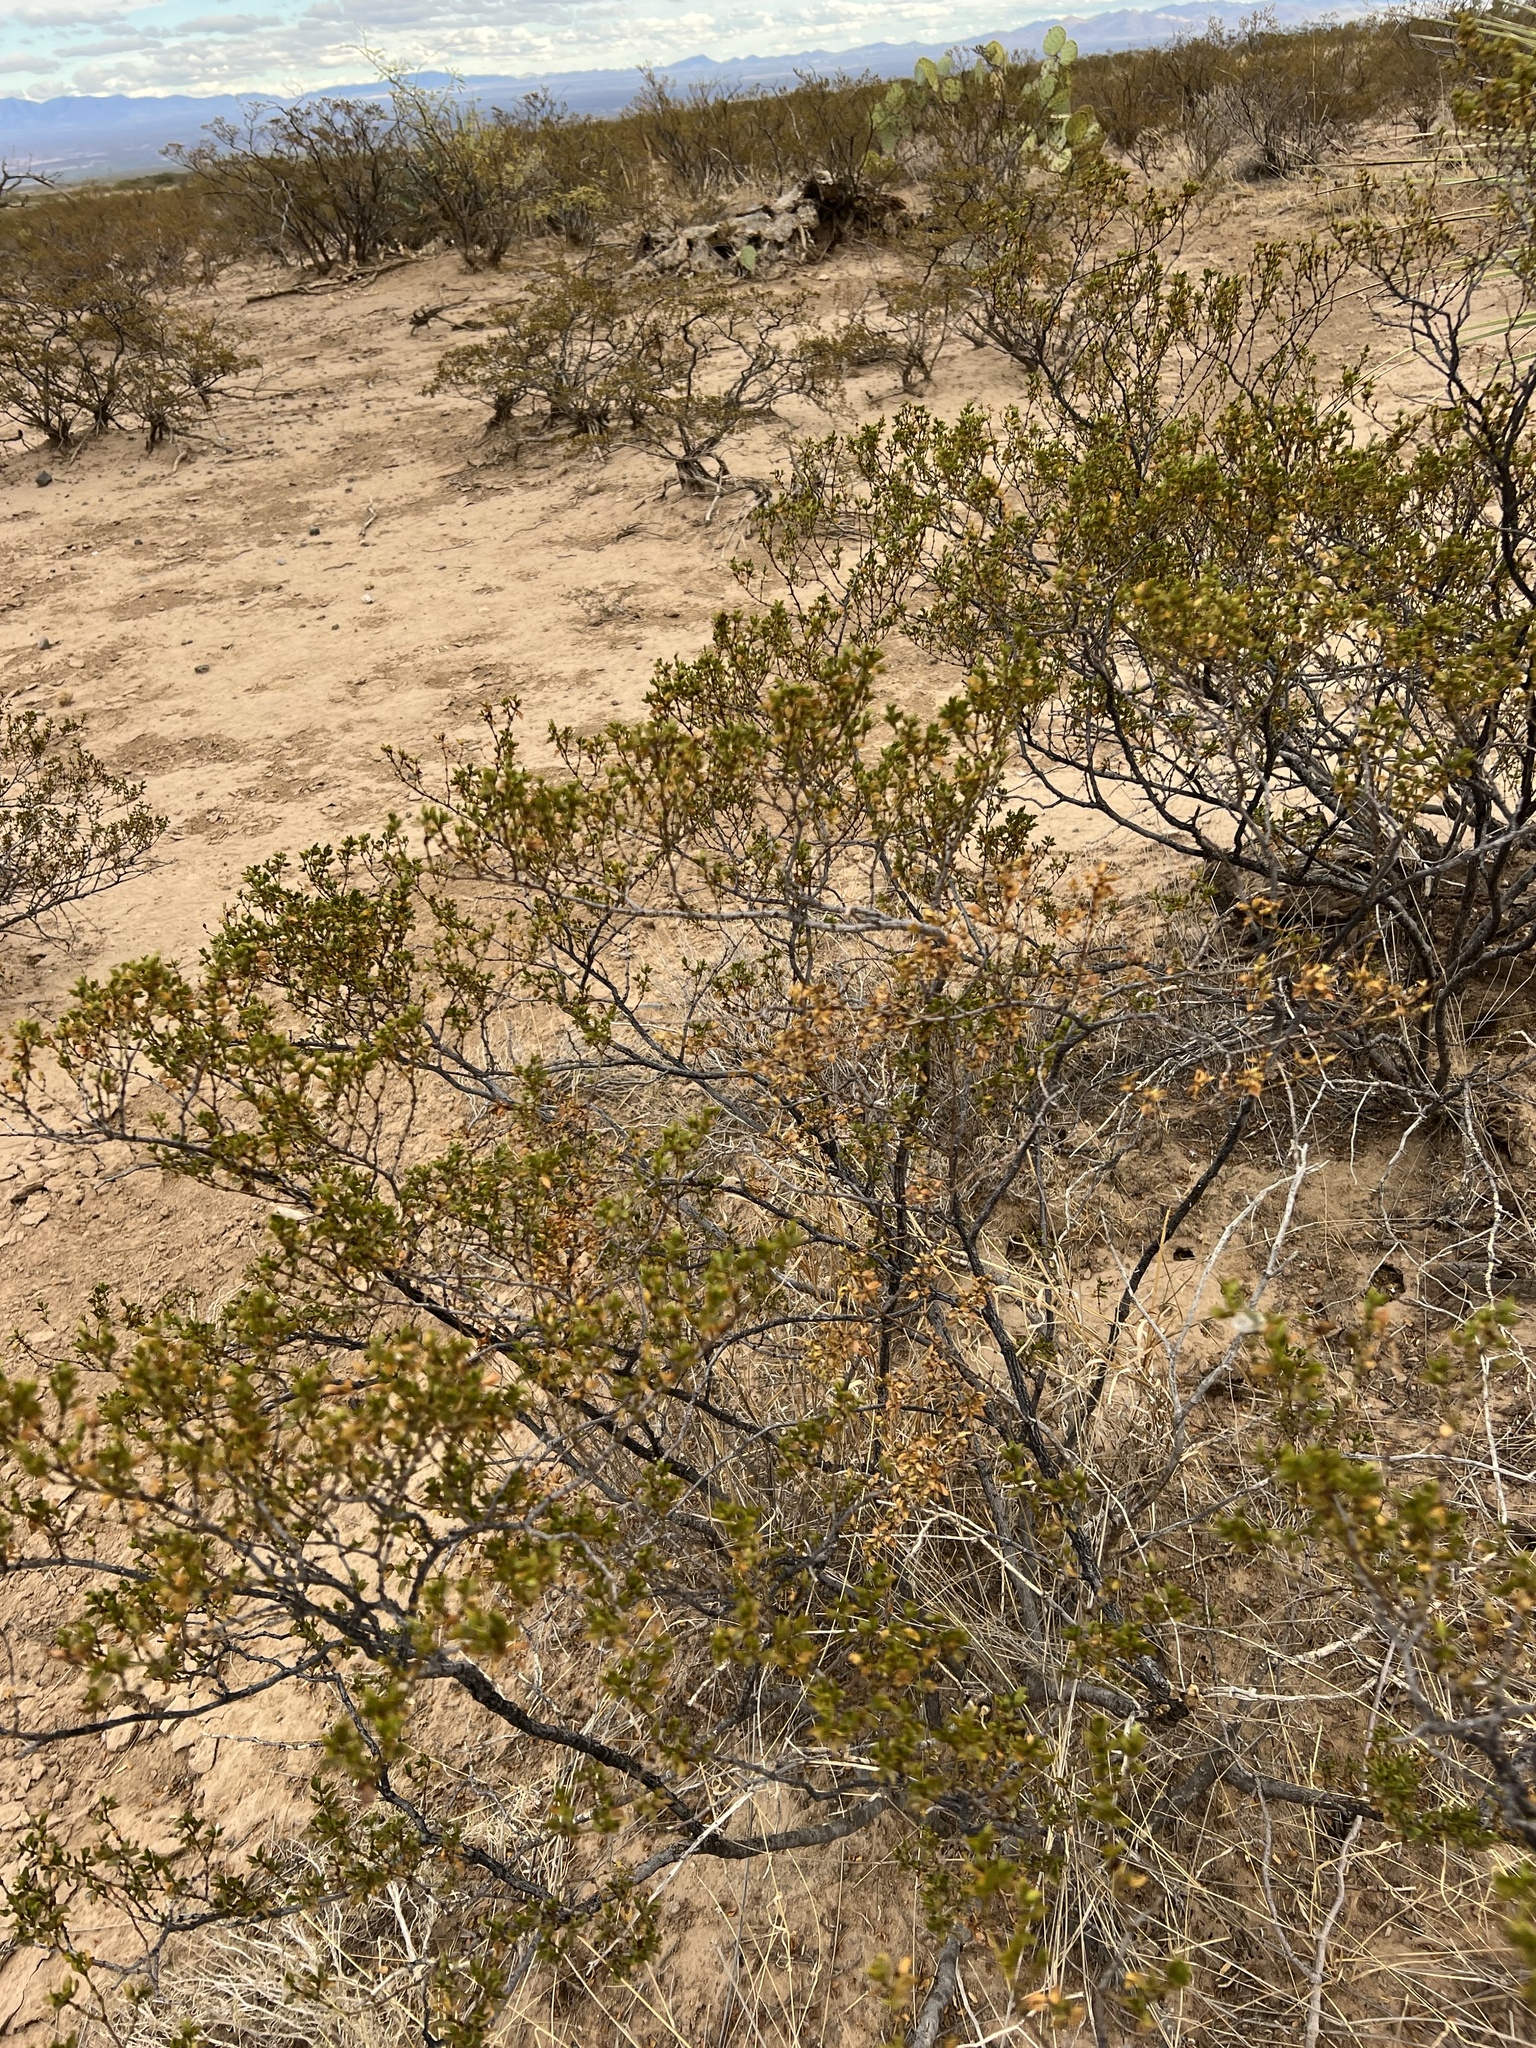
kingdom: Plantae
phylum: Tracheophyta
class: Magnoliopsida
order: Zygophyllales
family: Zygophyllaceae
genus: Larrea
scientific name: Larrea tridentata
